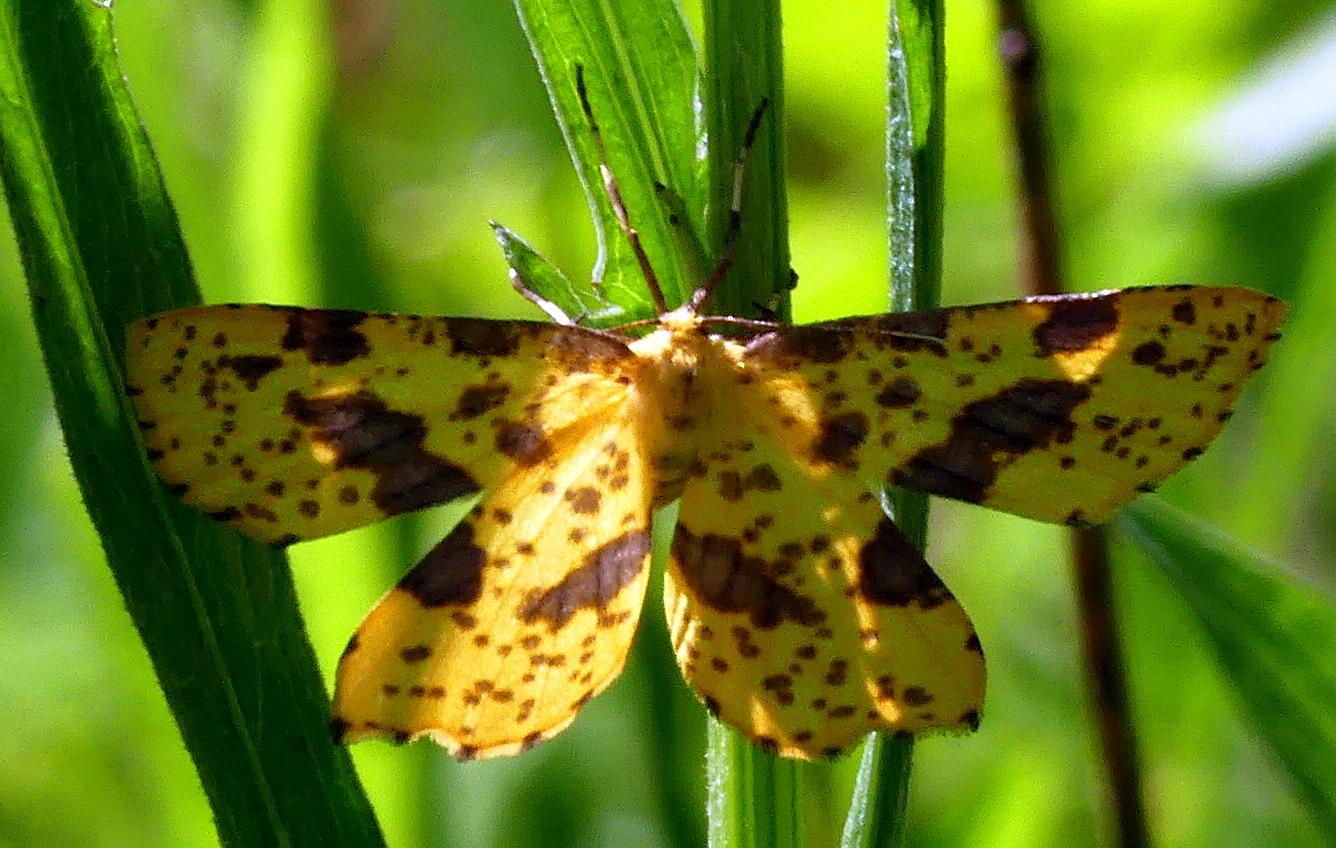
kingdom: Animalia
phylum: Arthropoda
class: Insecta
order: Lepidoptera
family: Geometridae
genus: Xanthotype
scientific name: Xanthotype
